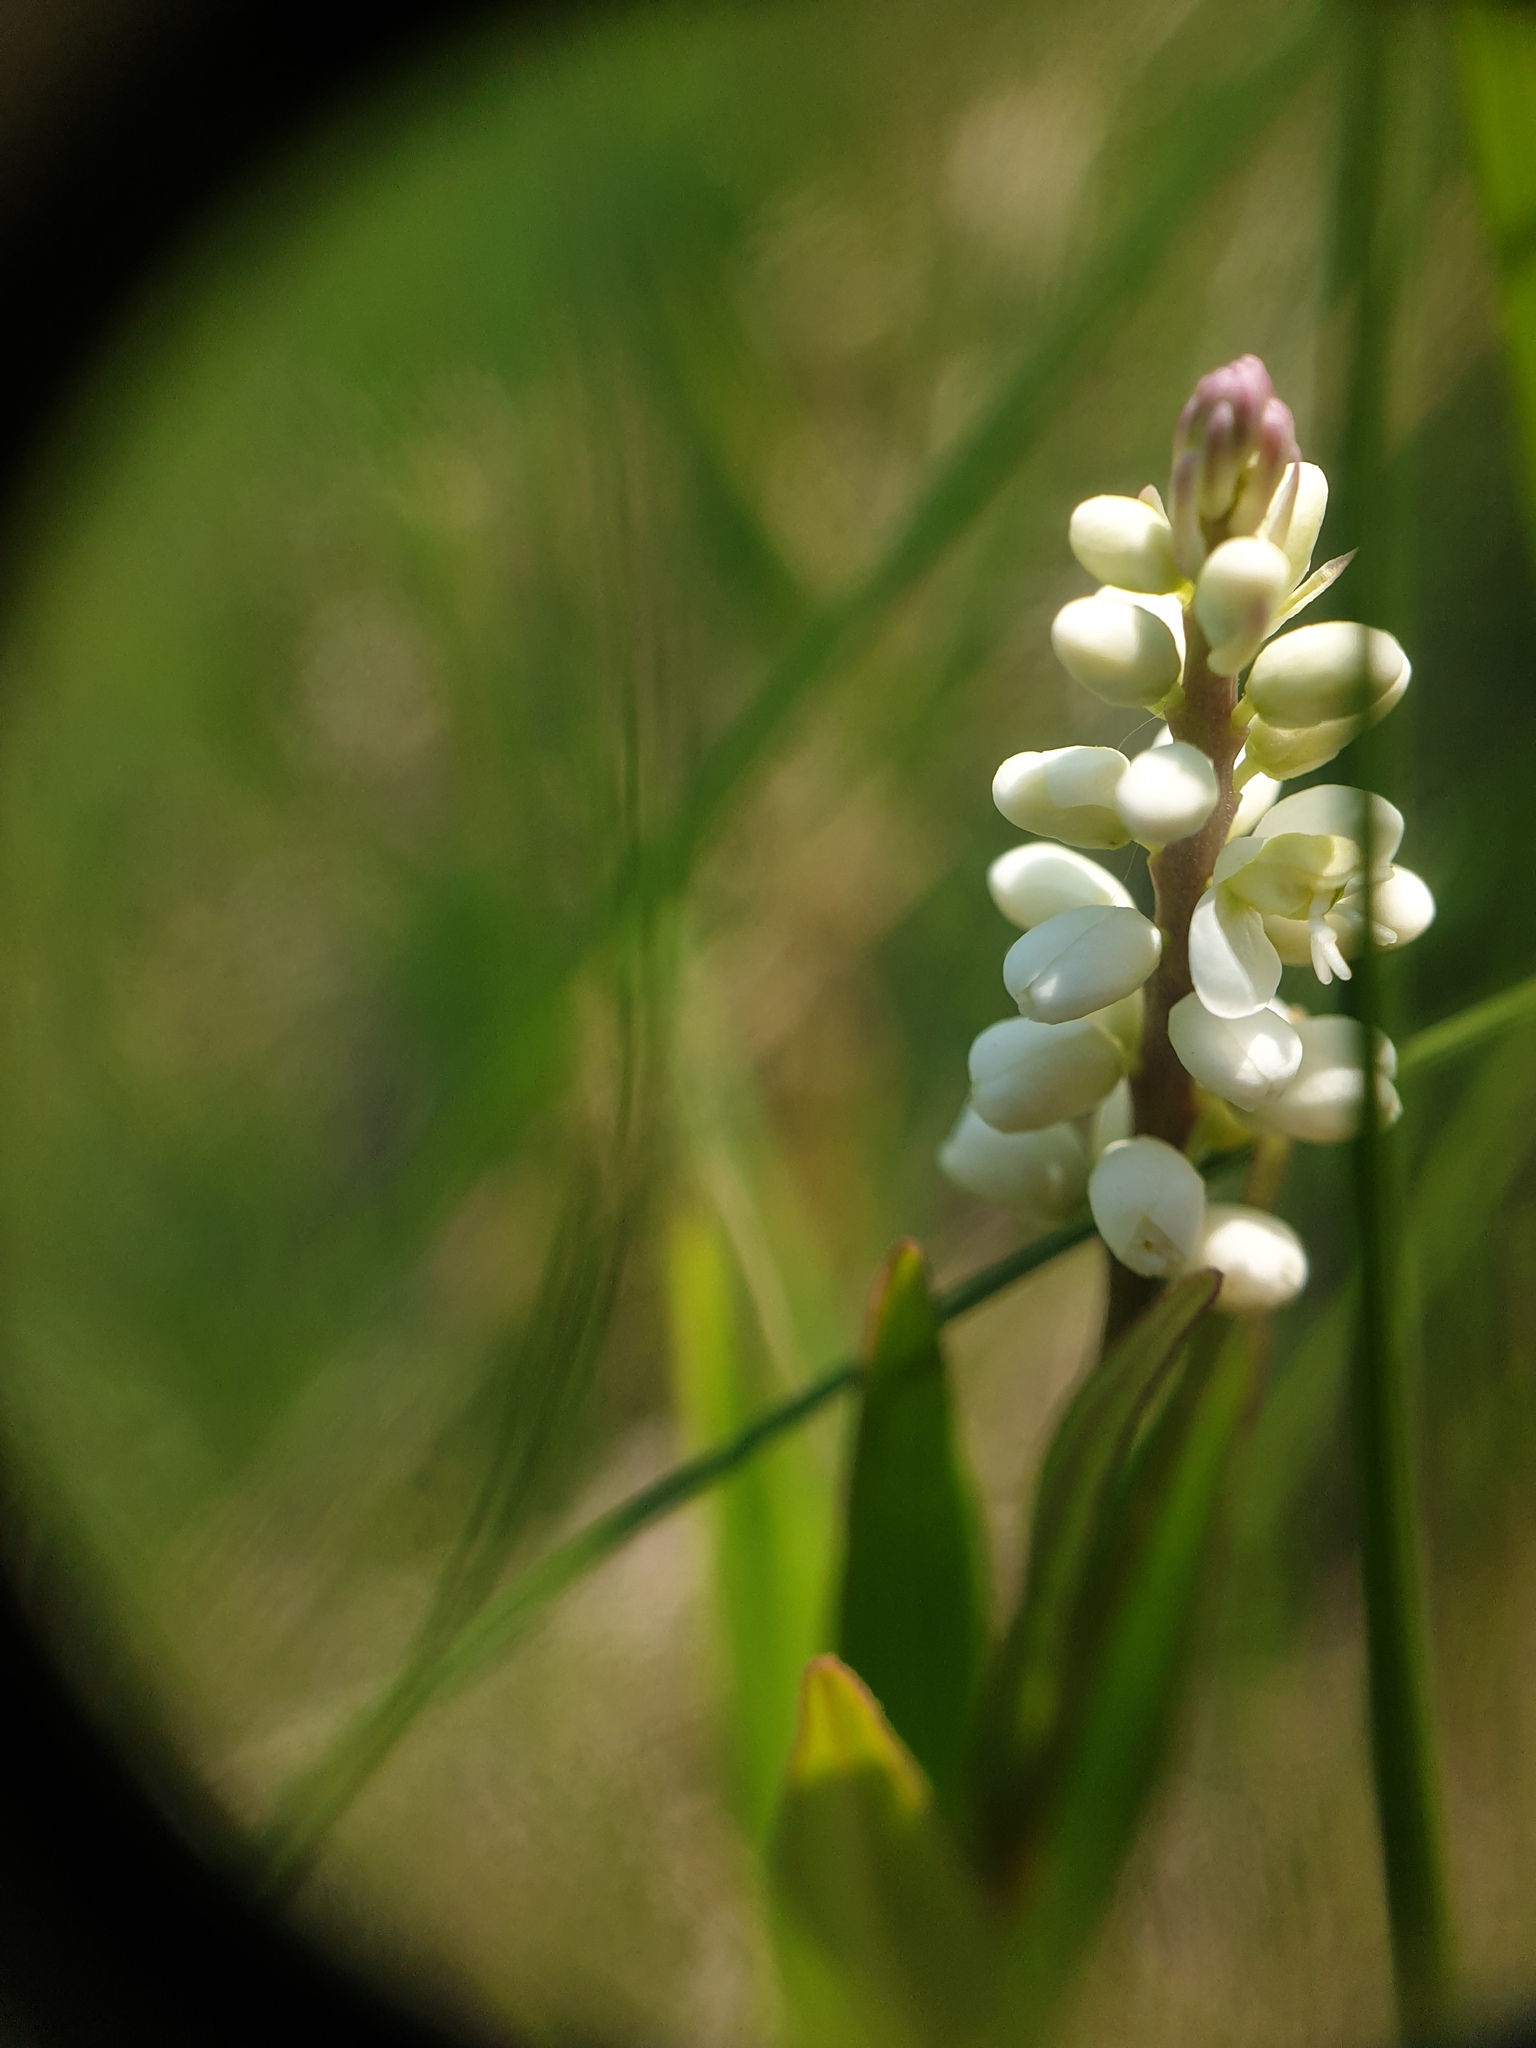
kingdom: Plantae
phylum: Tracheophyta
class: Magnoliopsida
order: Fabales
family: Polygalaceae
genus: Polygala
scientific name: Polygala senega
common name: Seneca snakeroot
